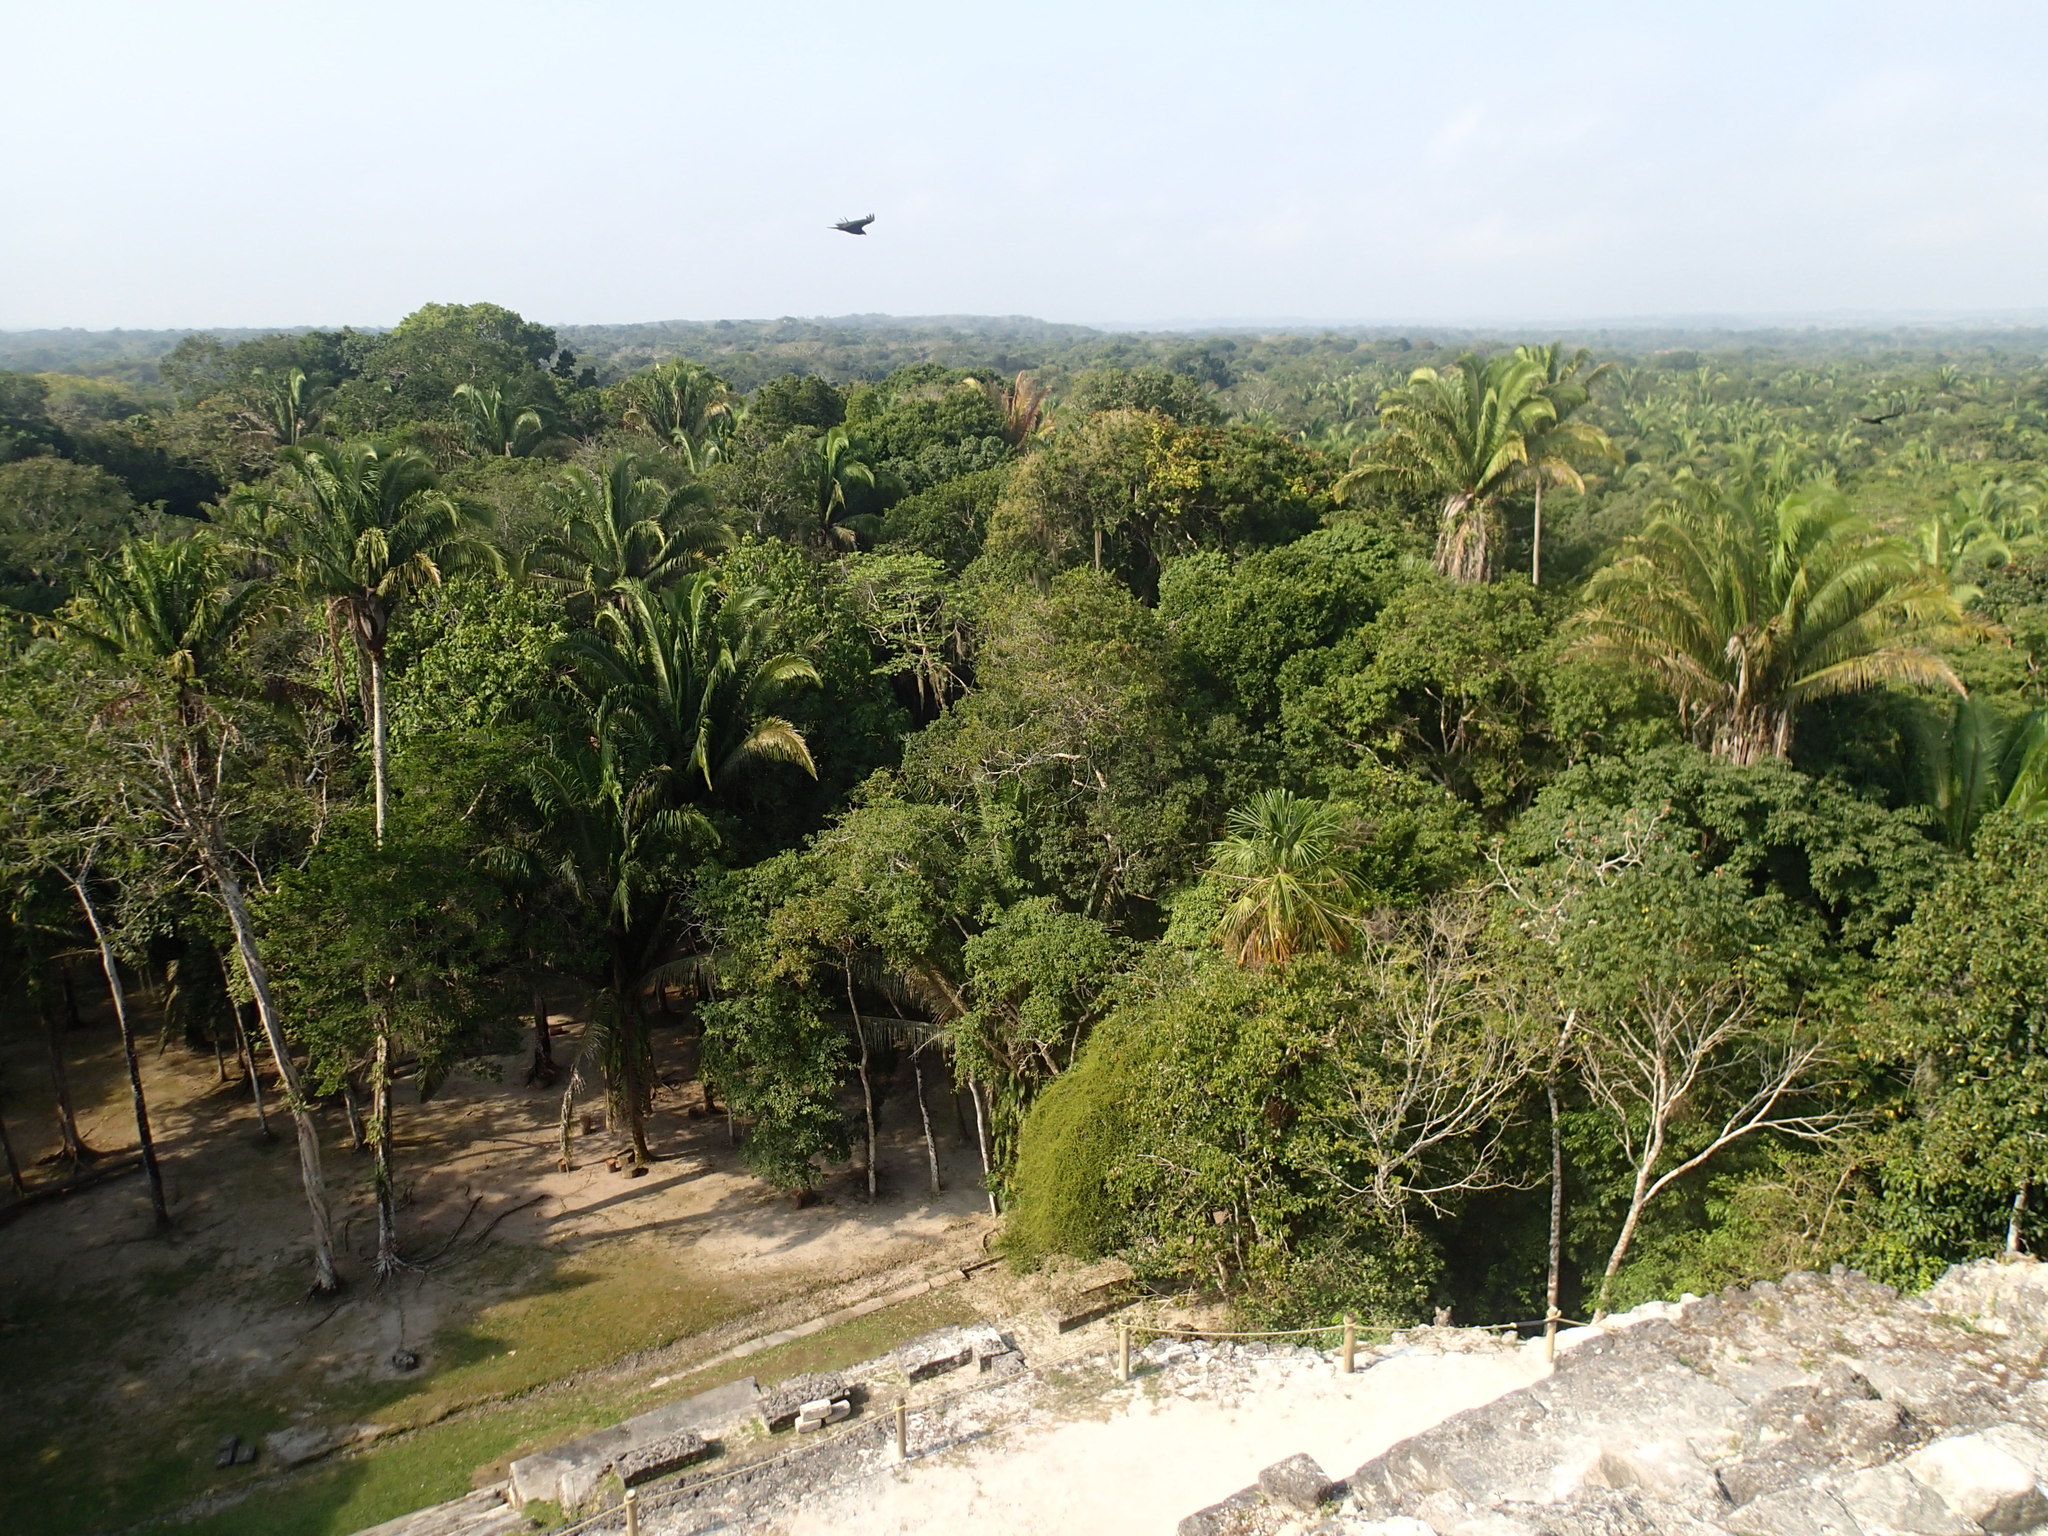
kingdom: Animalia
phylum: Chordata
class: Aves
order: Accipitriformes
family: Cathartidae
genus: Cathartes
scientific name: Cathartes aura
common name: Turkey vulture
